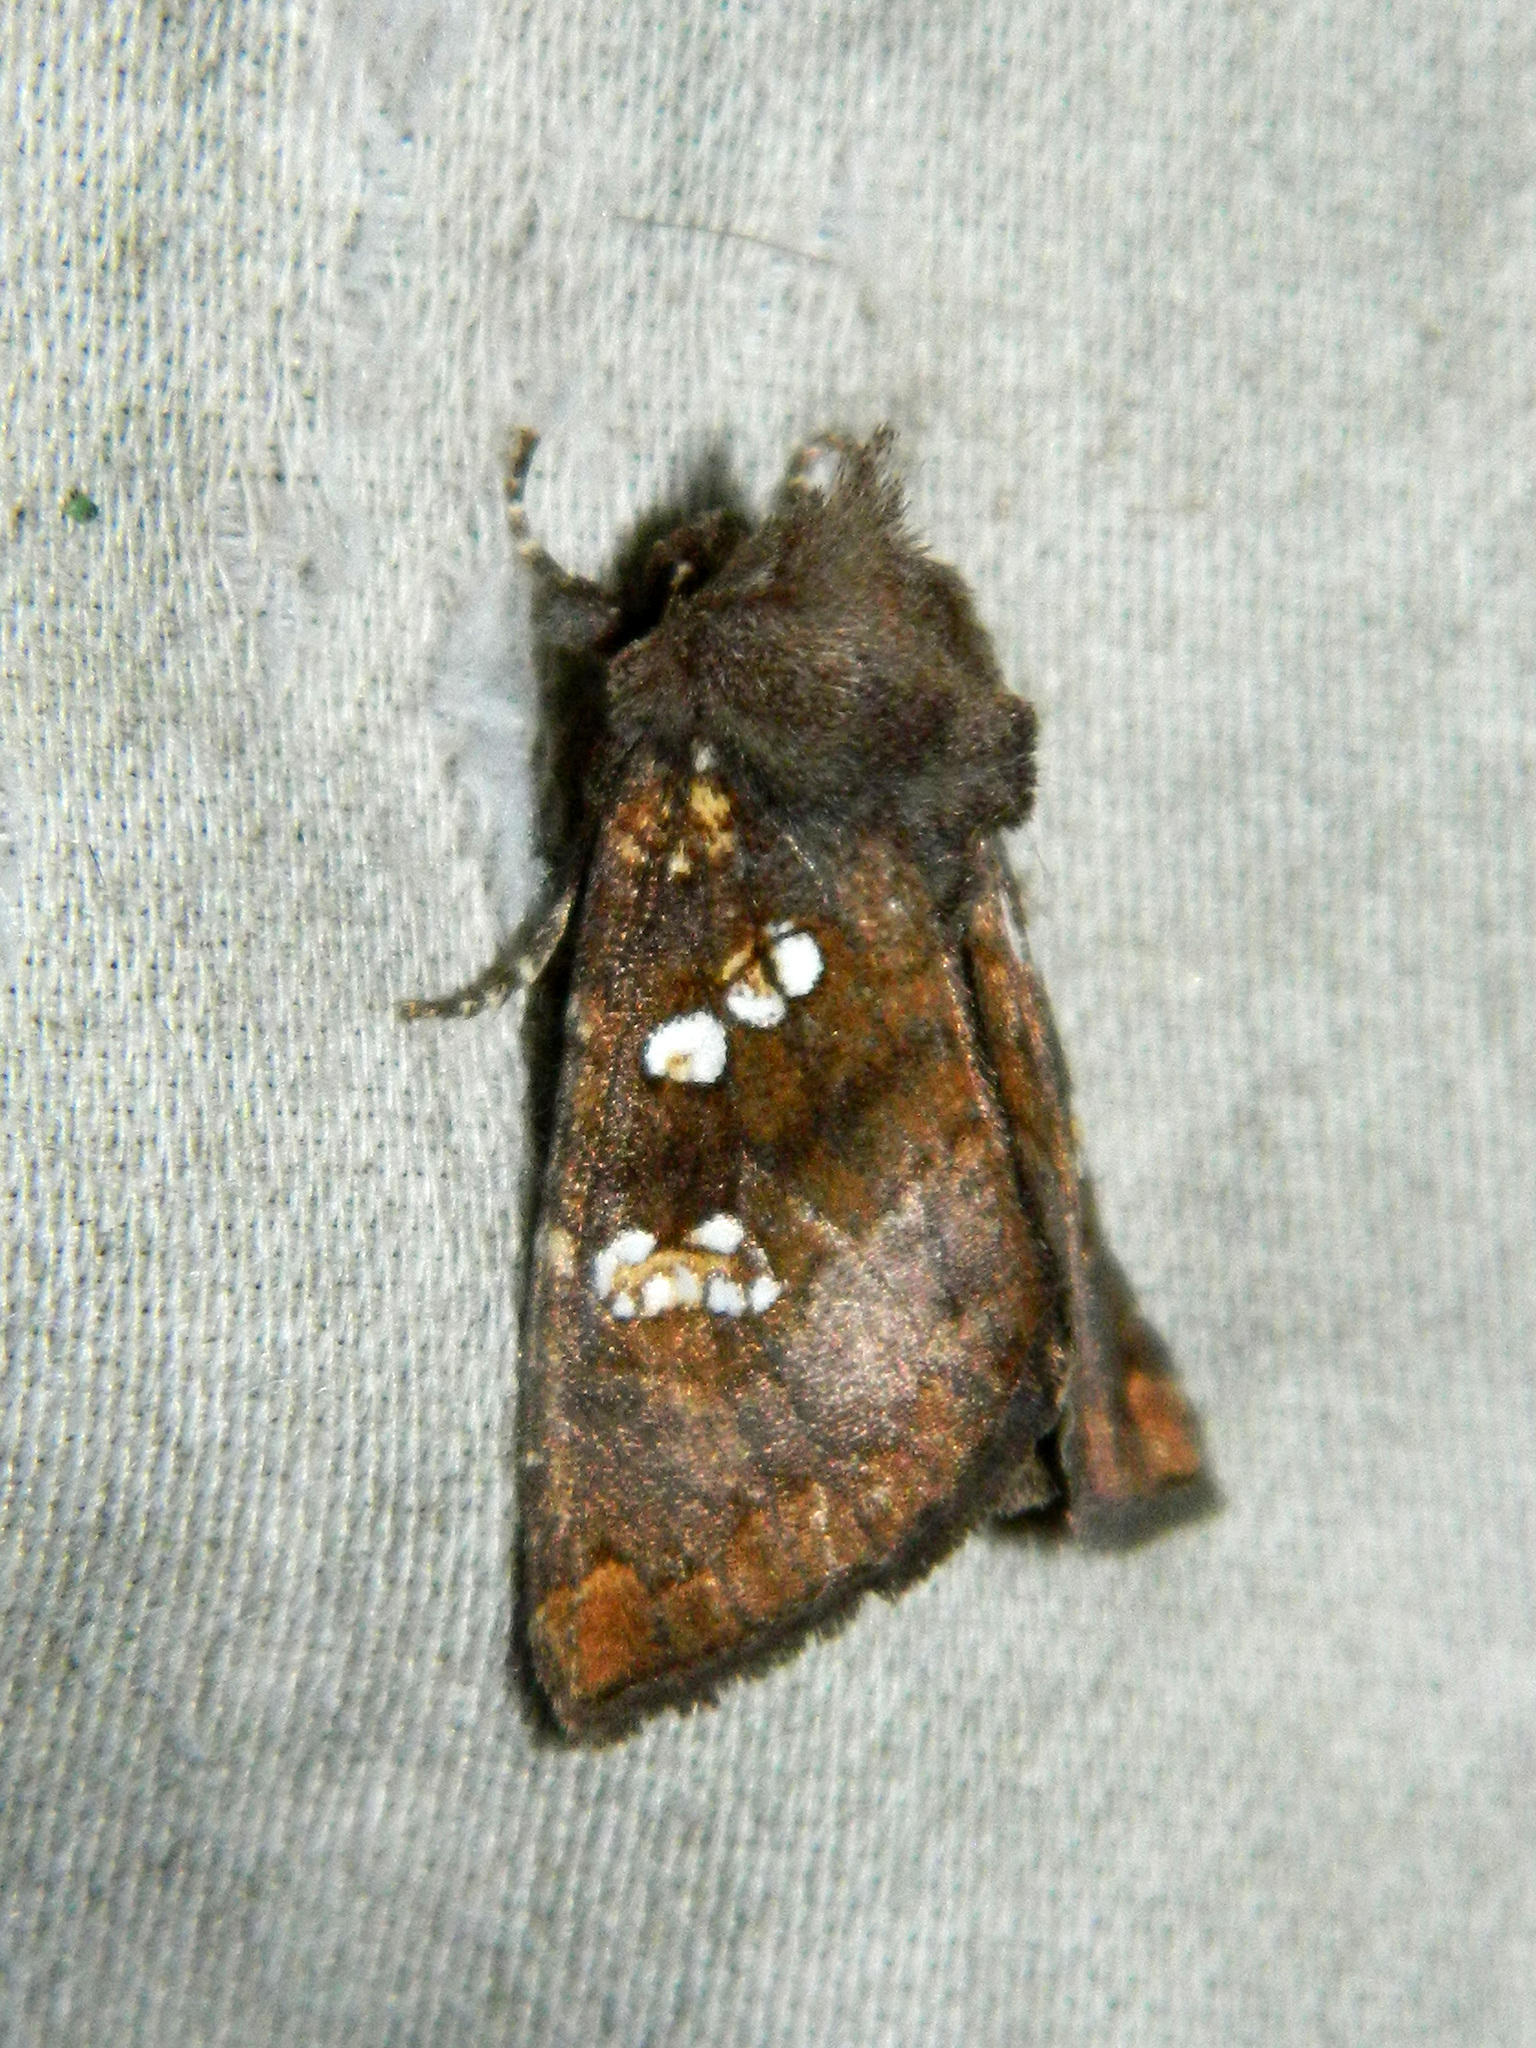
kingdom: Animalia
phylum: Arthropoda
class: Insecta
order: Lepidoptera
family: Noctuidae
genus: Papaipema
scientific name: Papaipema unimoda
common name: Meadow rue borer moth
